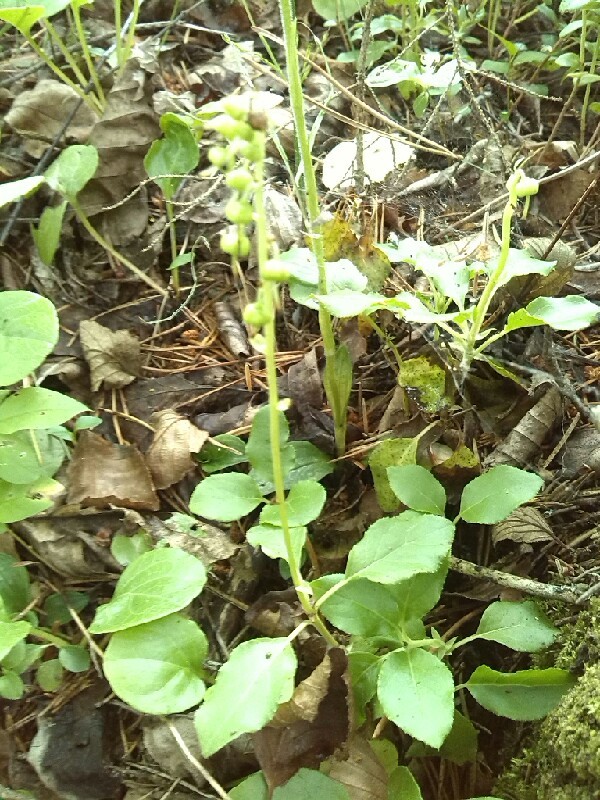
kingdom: Plantae
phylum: Tracheophyta
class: Magnoliopsida
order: Ericales
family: Ericaceae
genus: Orthilia
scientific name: Orthilia secunda
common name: One-sided orthilia
